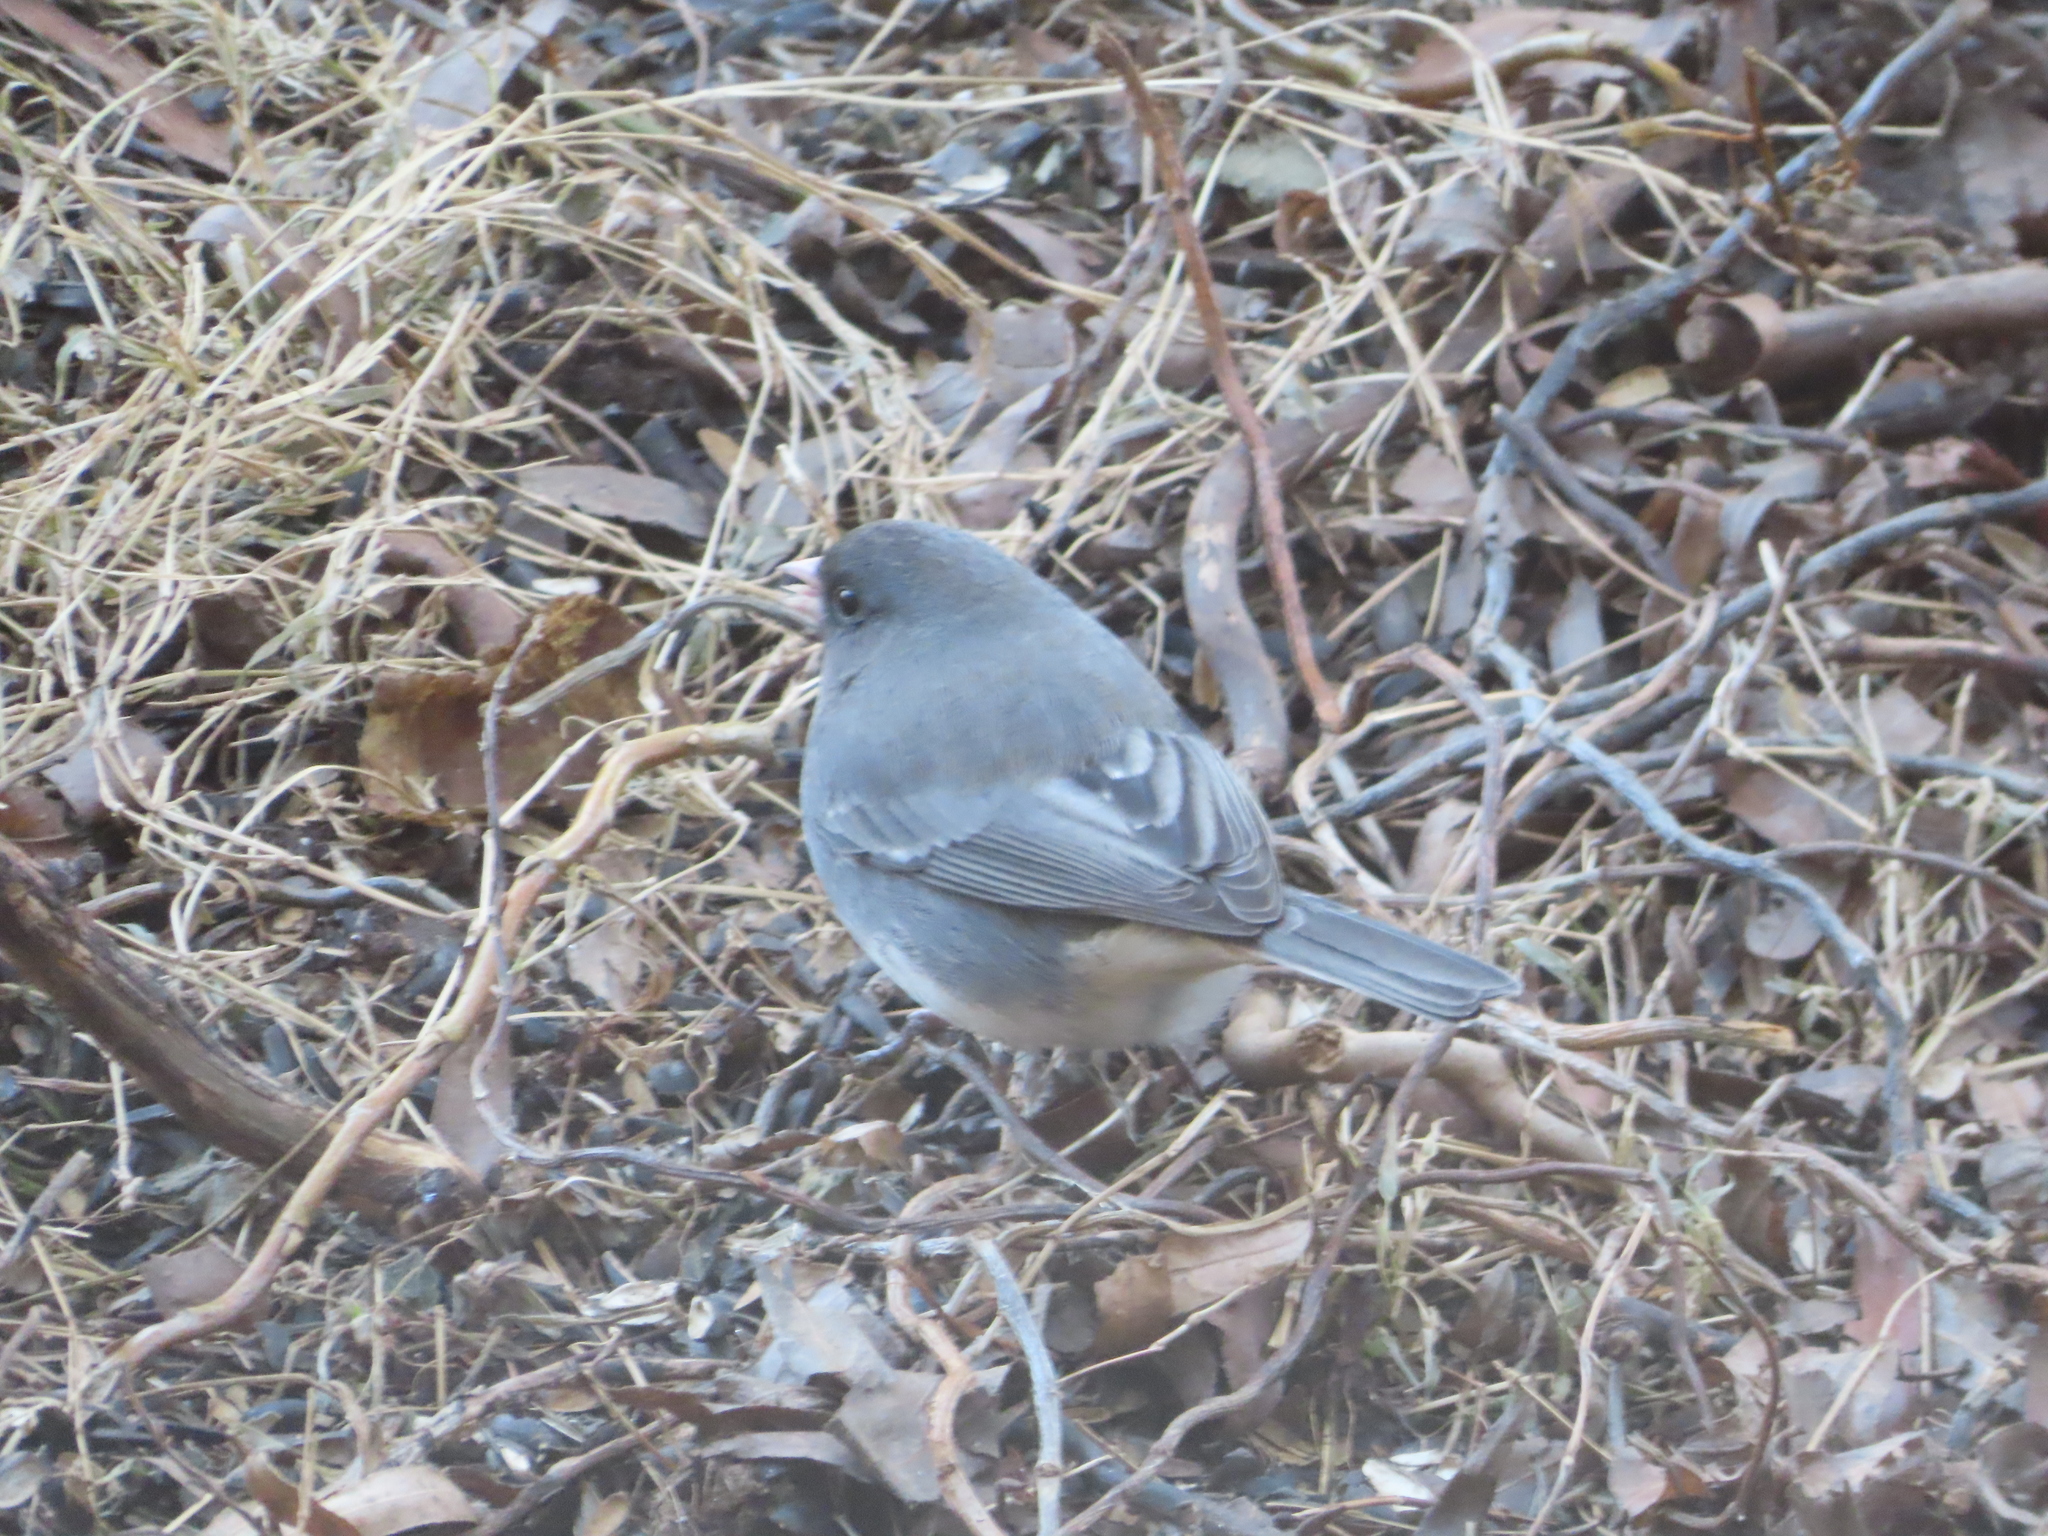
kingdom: Animalia
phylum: Chordata
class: Aves
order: Passeriformes
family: Passerellidae
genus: Junco
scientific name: Junco hyemalis
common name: Dark-eyed junco
